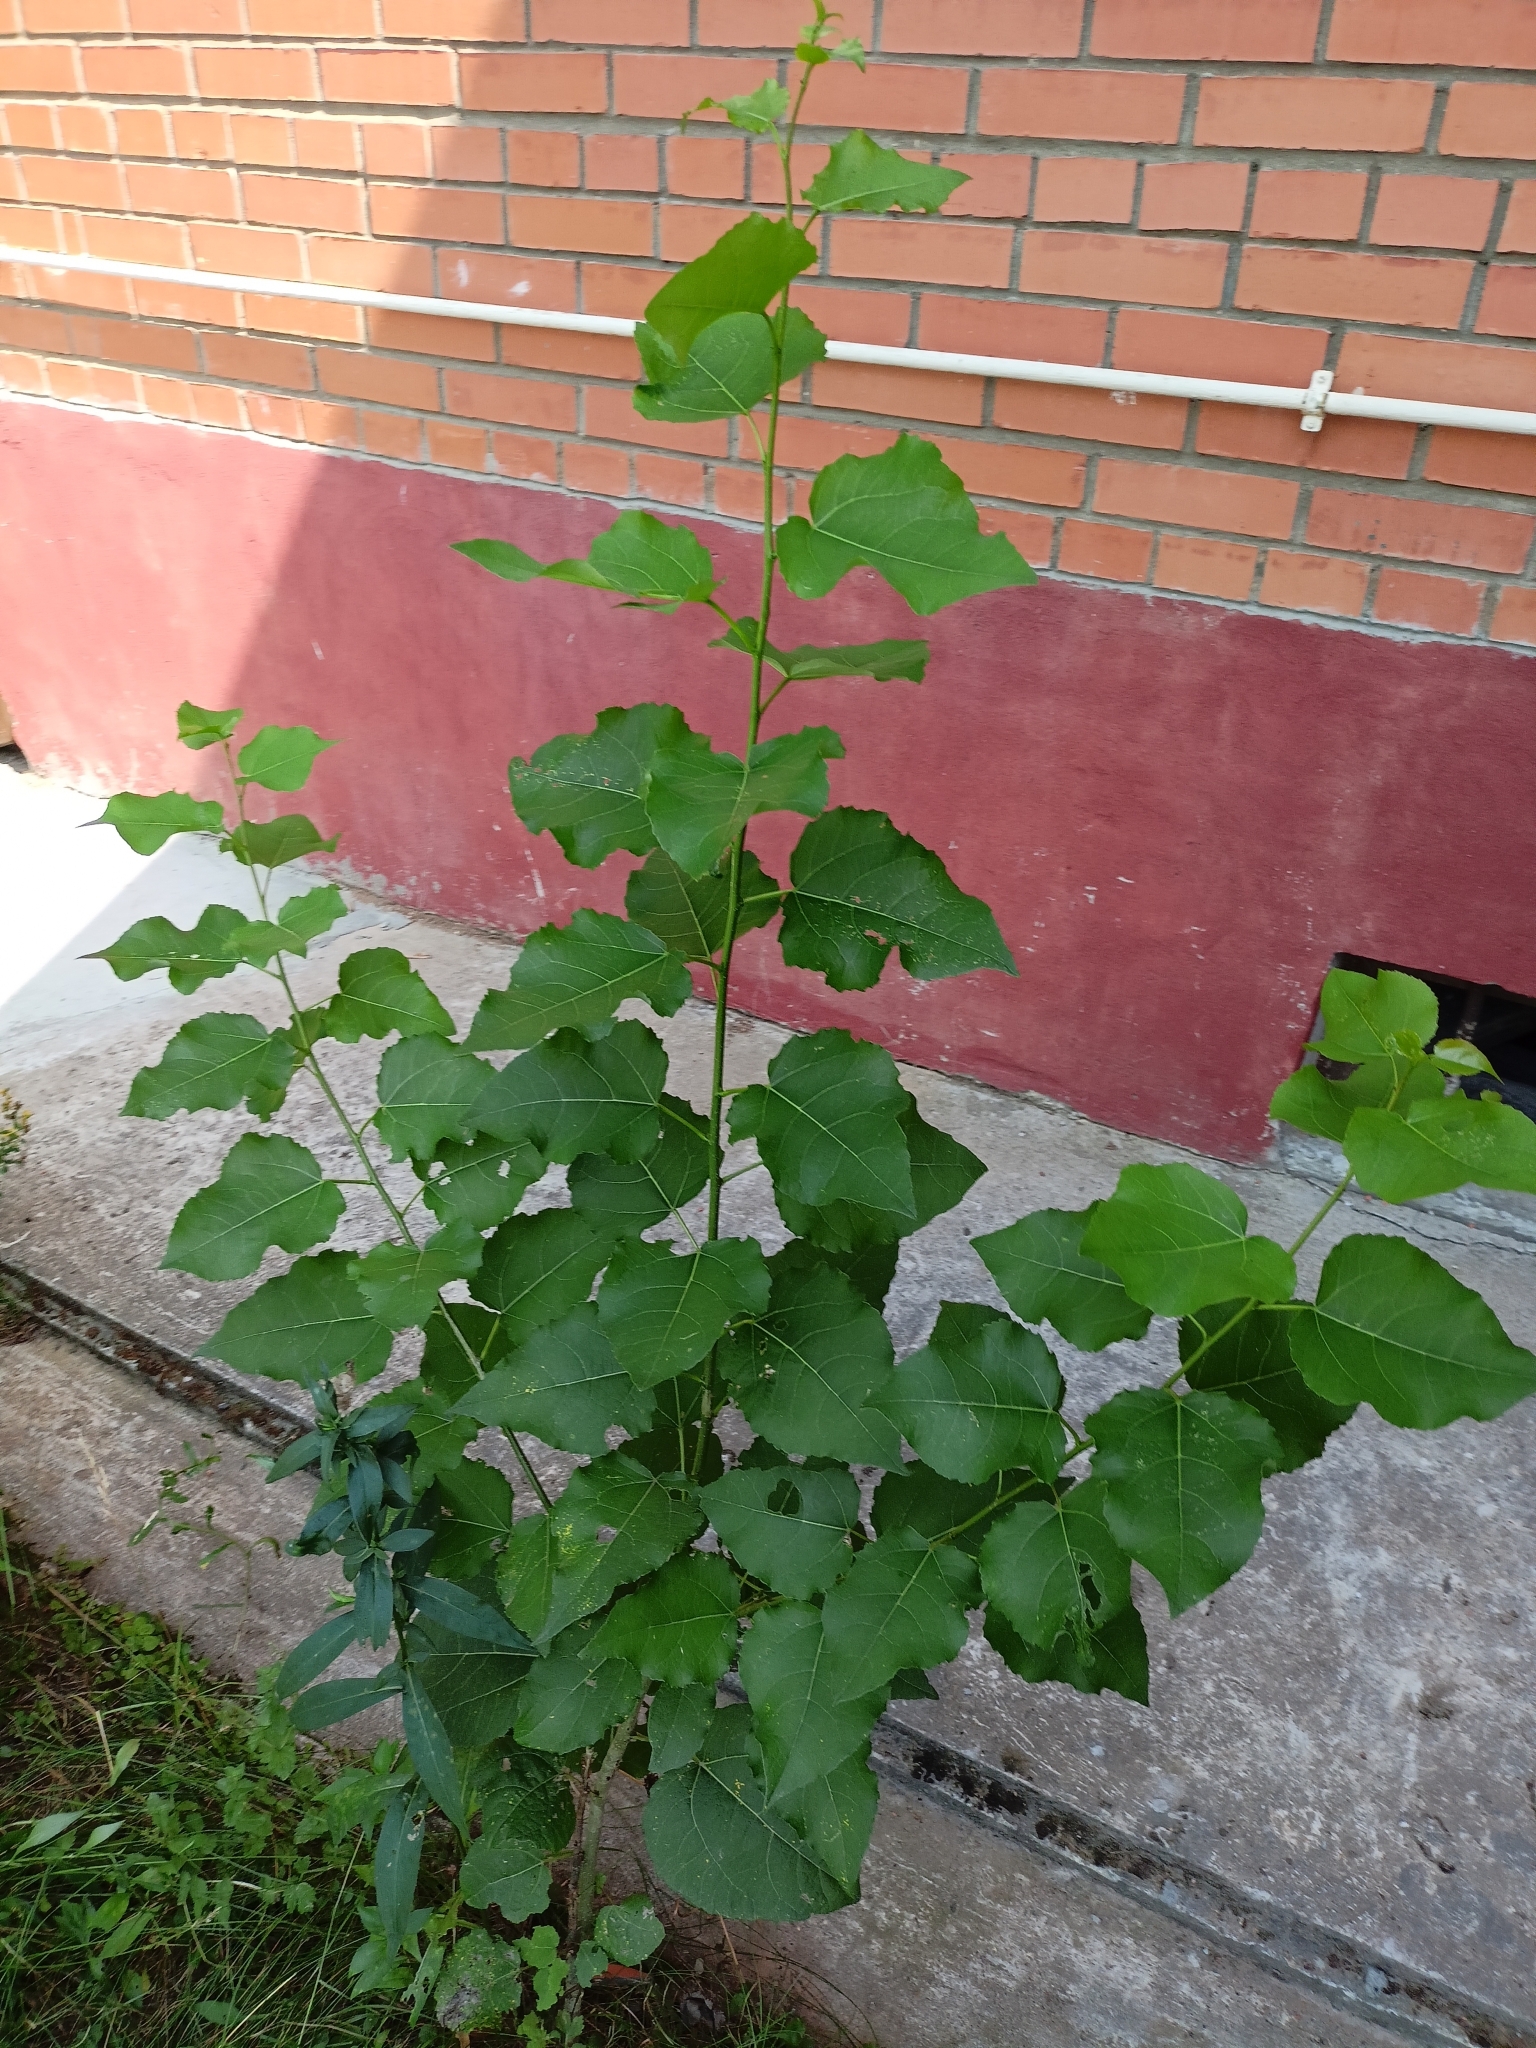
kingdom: Plantae
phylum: Tracheophyta
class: Magnoliopsida
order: Malpighiales
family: Salicaceae
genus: Populus
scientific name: Populus tremula
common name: European aspen
